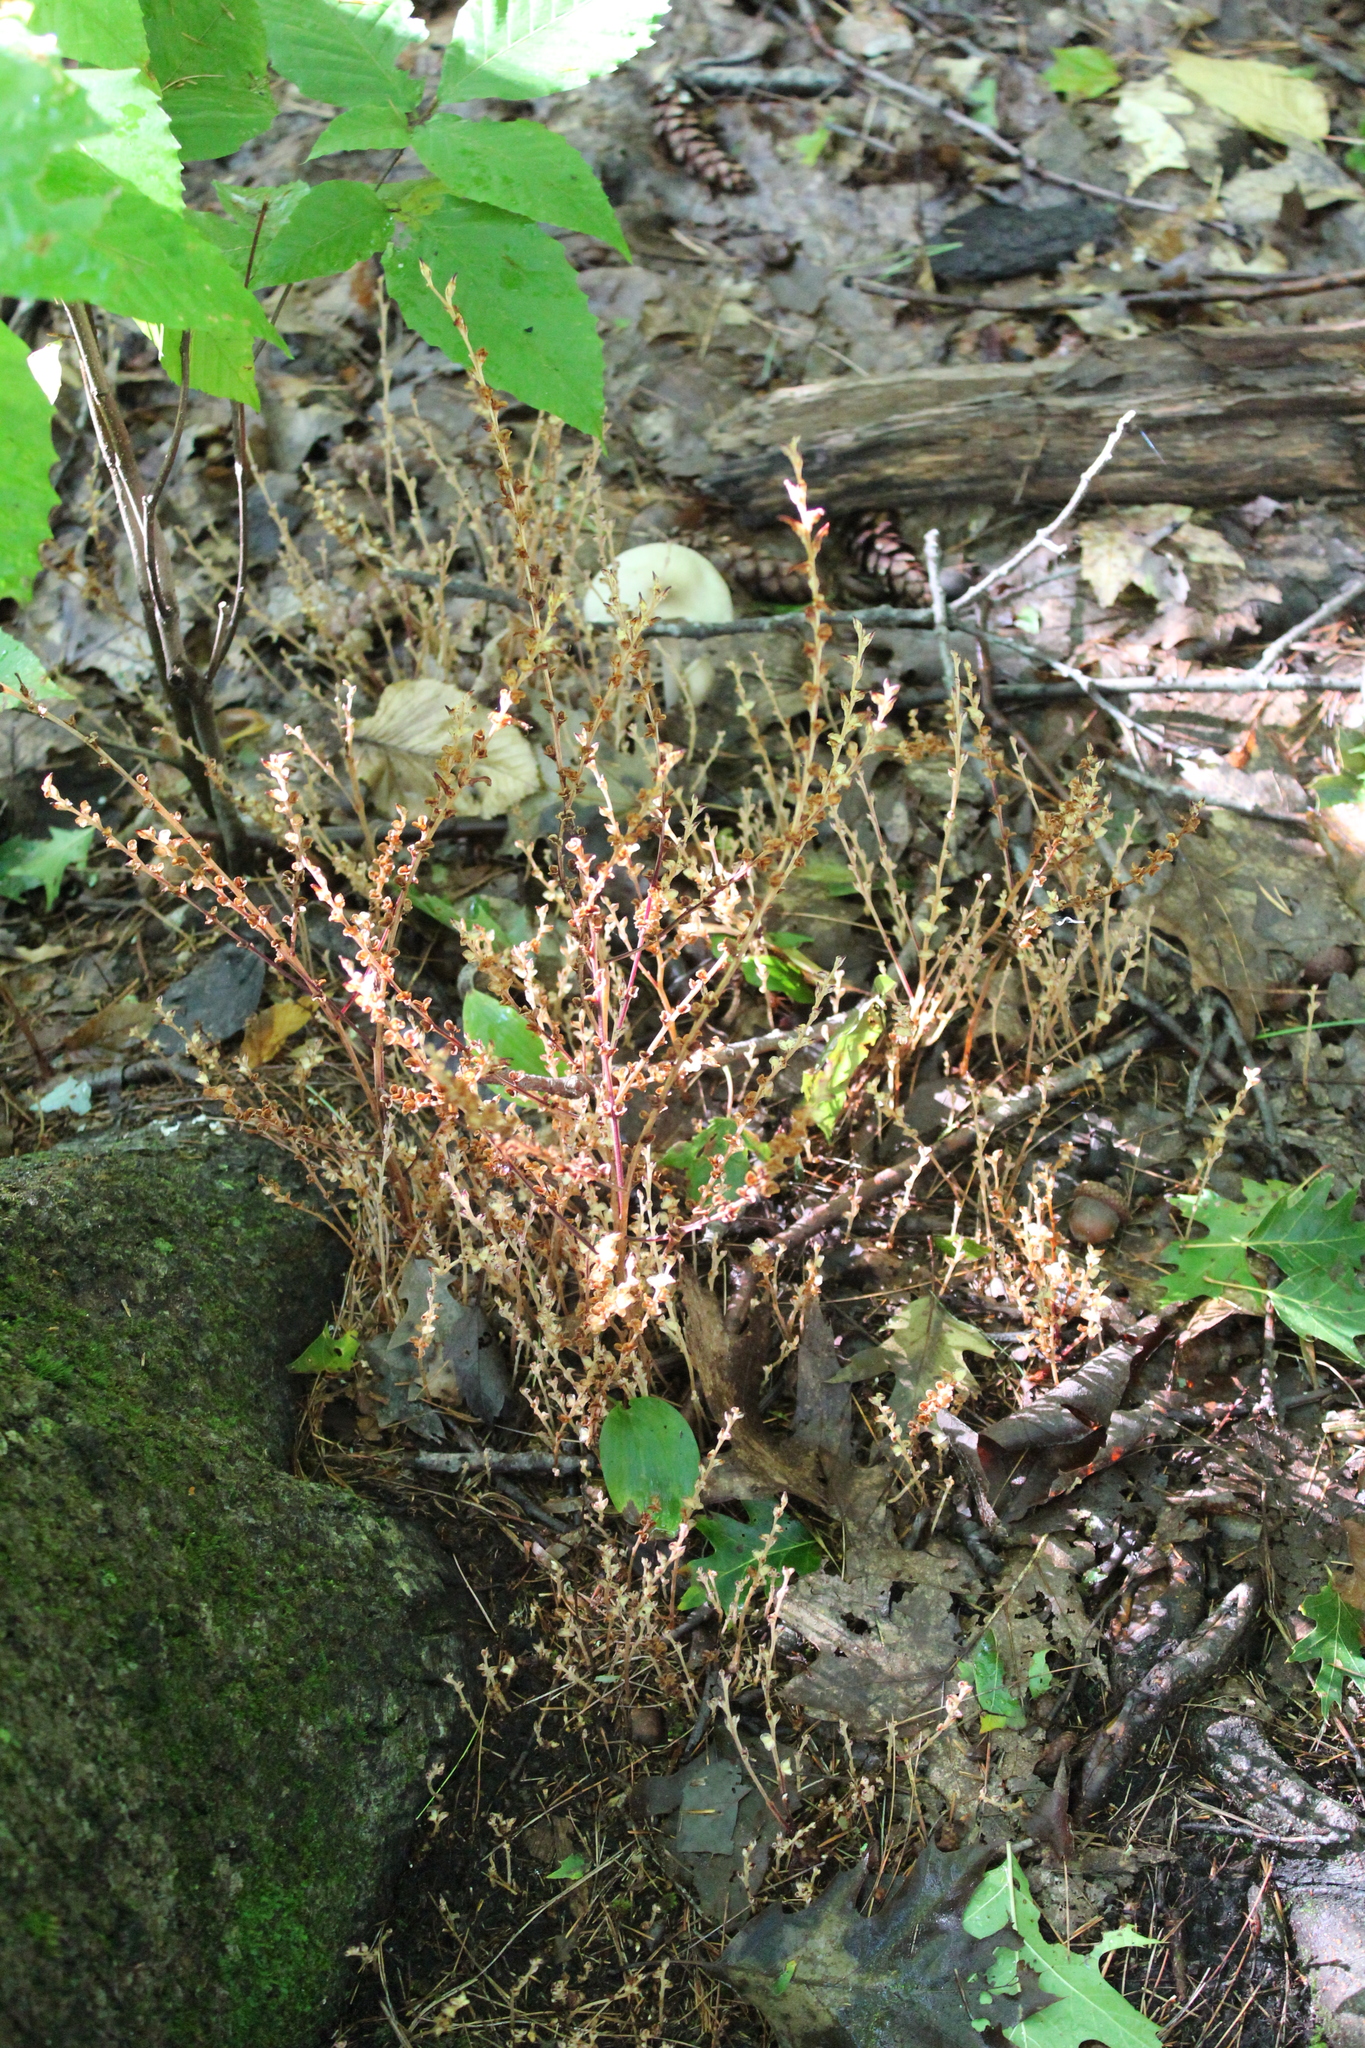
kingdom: Plantae
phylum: Tracheophyta
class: Magnoliopsida
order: Lamiales
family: Orobanchaceae
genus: Epifagus
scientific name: Epifagus virginiana
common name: Beechdrops
